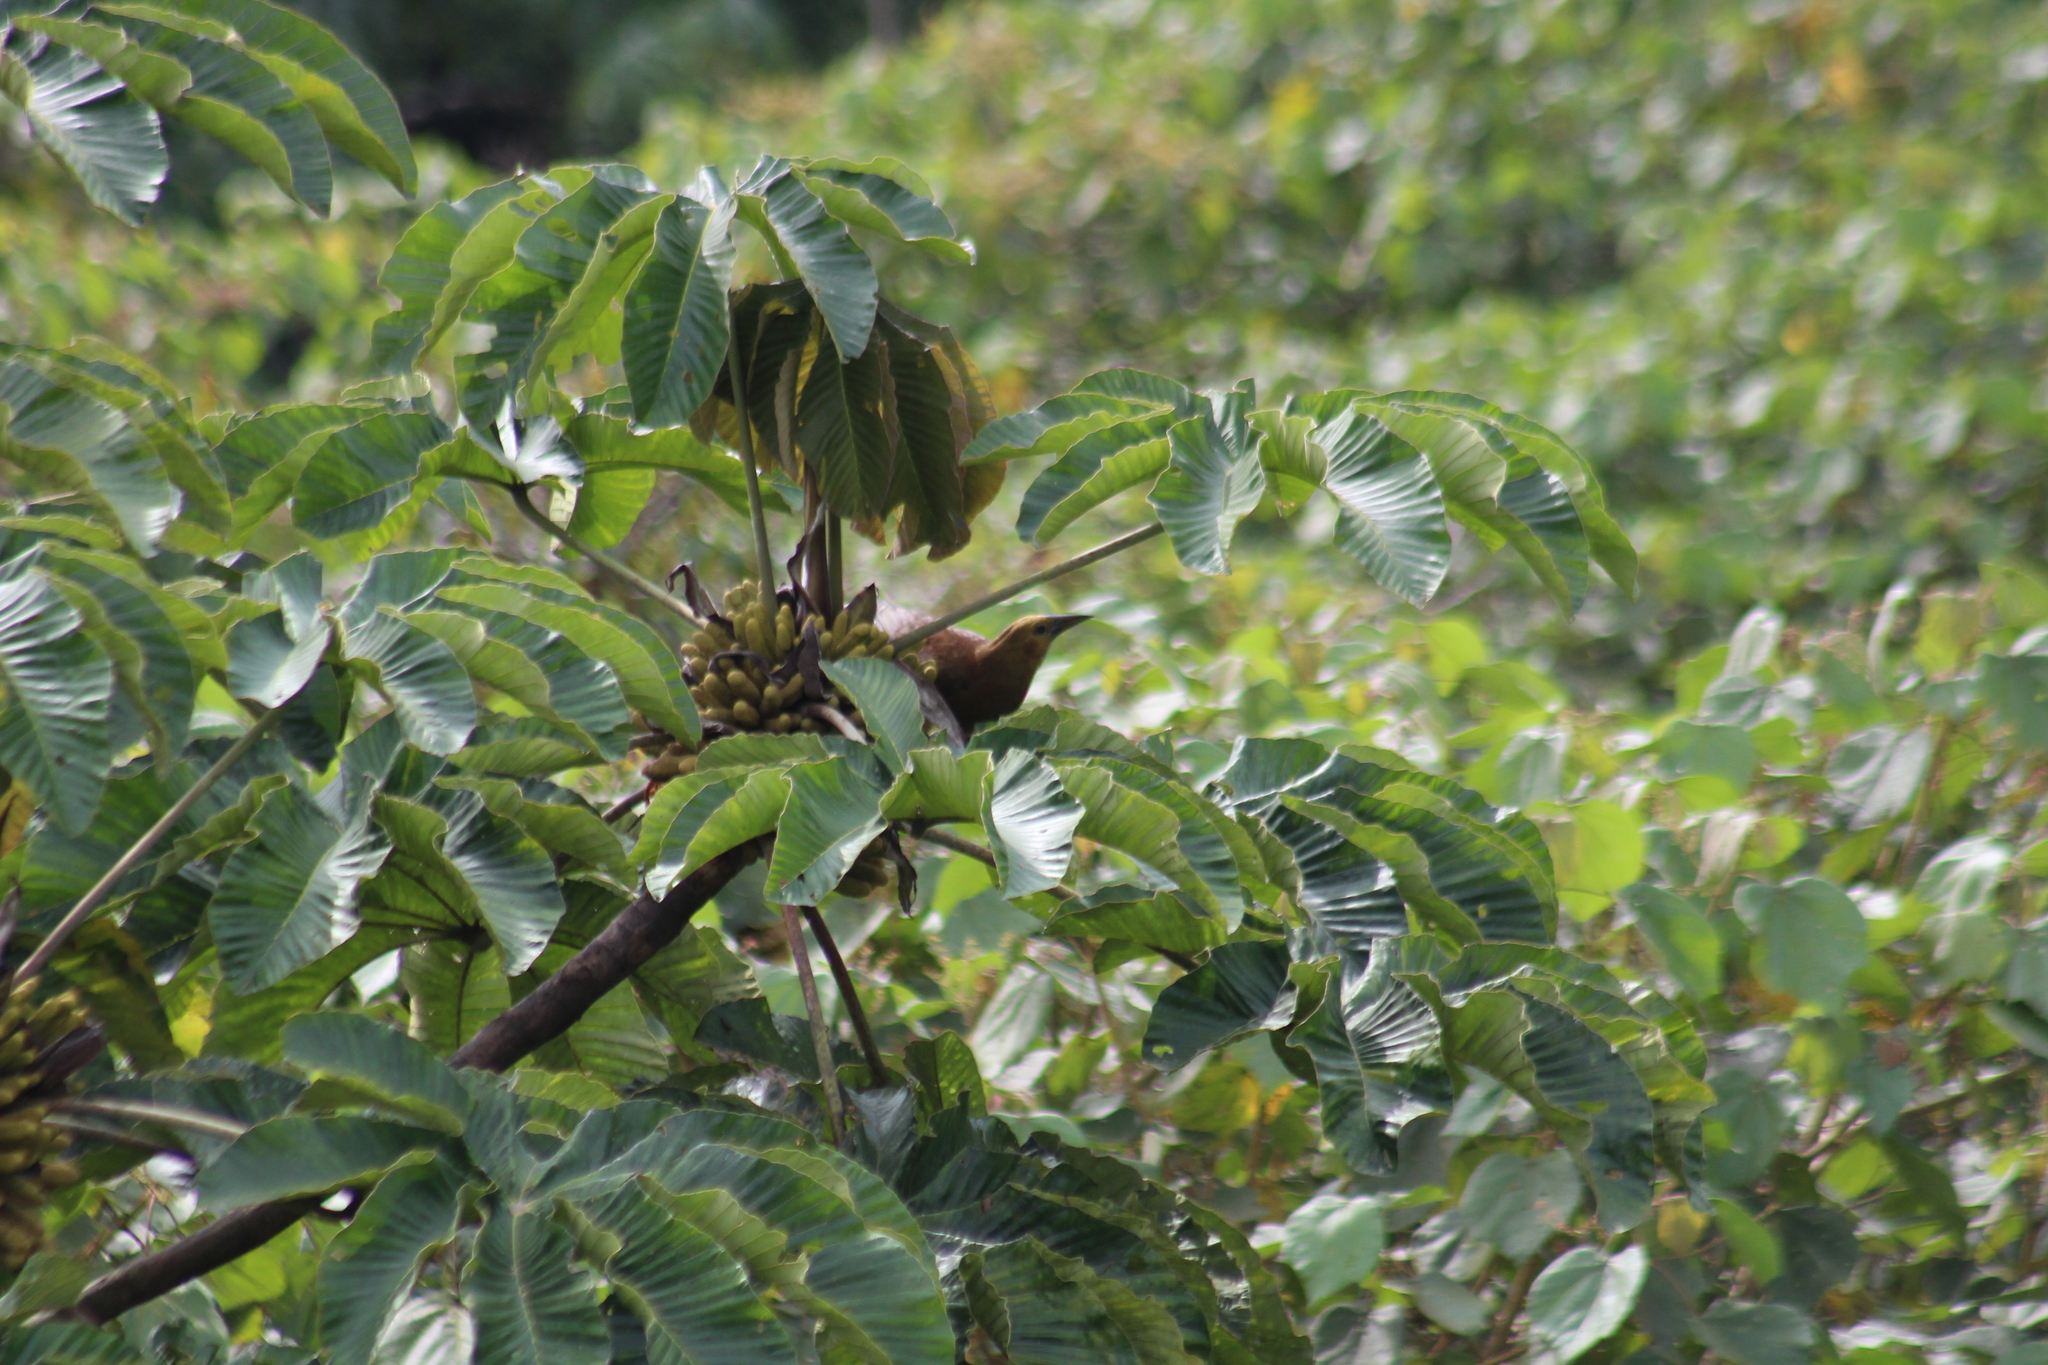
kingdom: Animalia
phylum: Chordata
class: Aves
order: Passeriformes
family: Icteridae
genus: Psarocolius
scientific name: Psarocolius angustifrons
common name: Russet-backed oropendola
